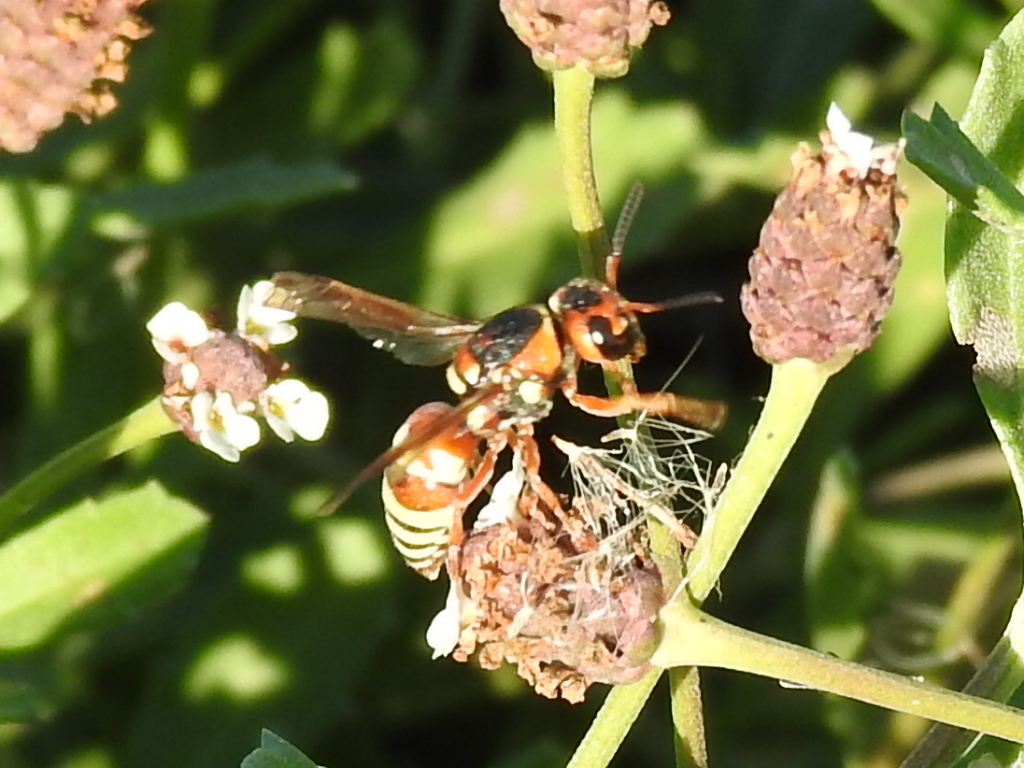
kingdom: Animalia
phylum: Arthropoda
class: Insecta
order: Hymenoptera
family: Eumenidae
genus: Euodynerus
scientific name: Euodynerus annulatus
